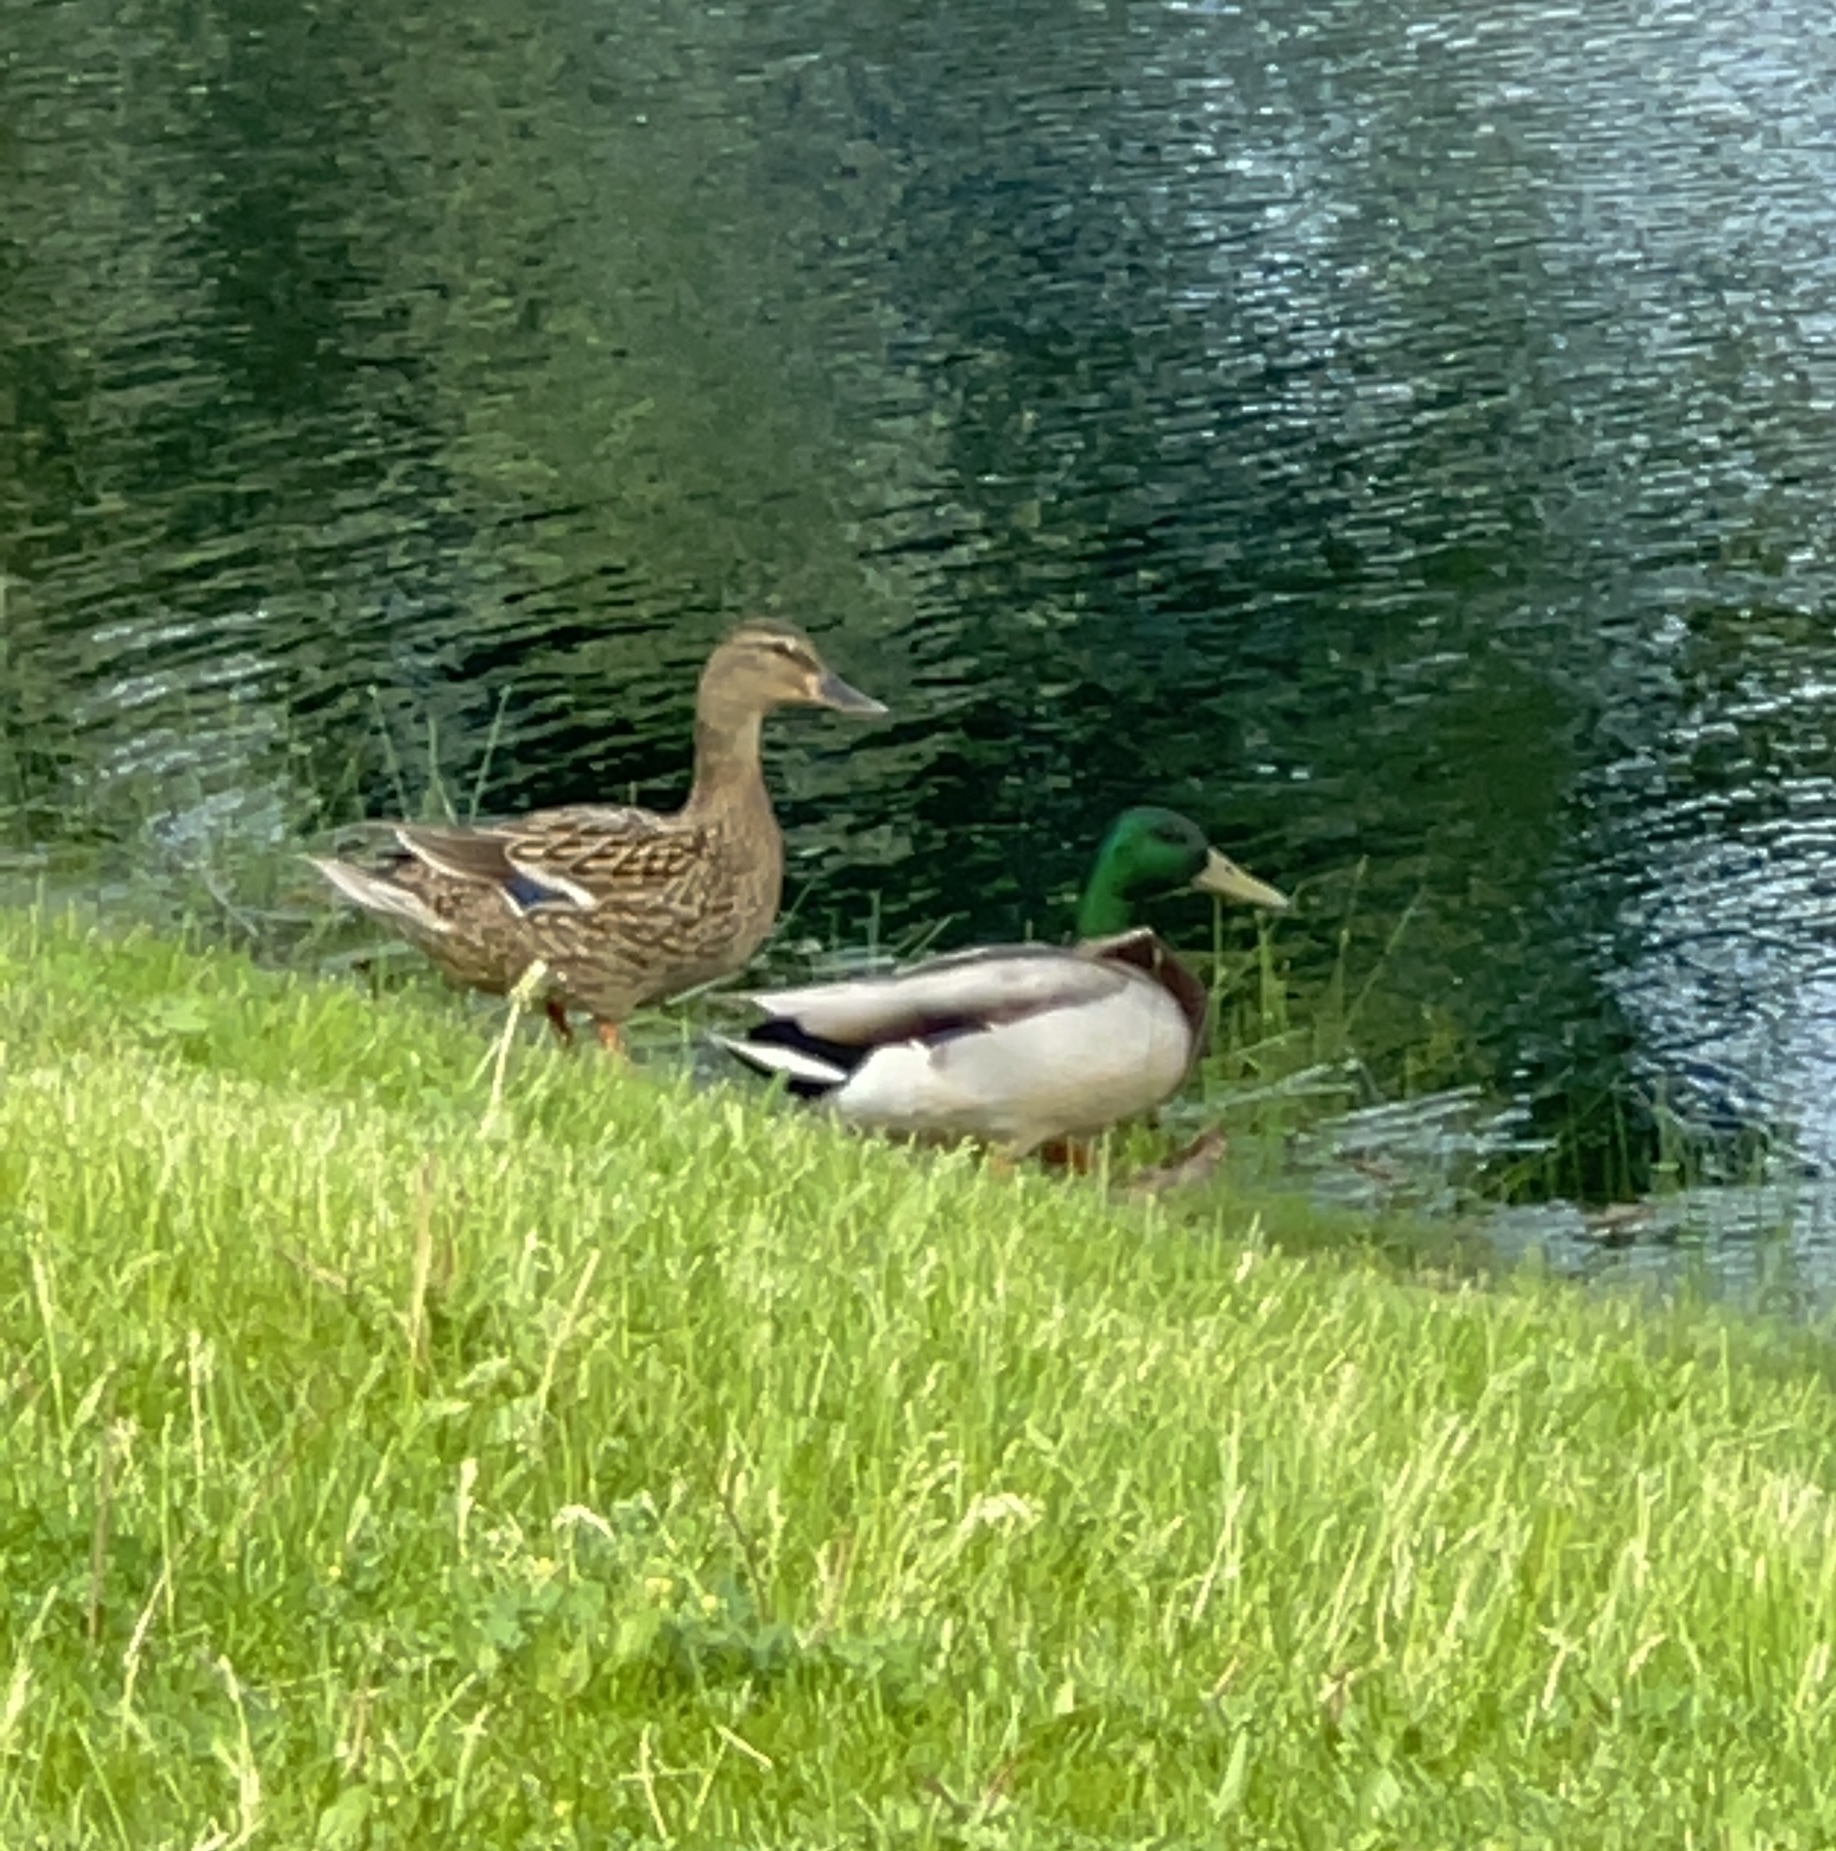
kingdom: Animalia
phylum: Chordata
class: Aves
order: Anseriformes
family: Anatidae
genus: Anas
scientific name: Anas platyrhynchos
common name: Mallard
